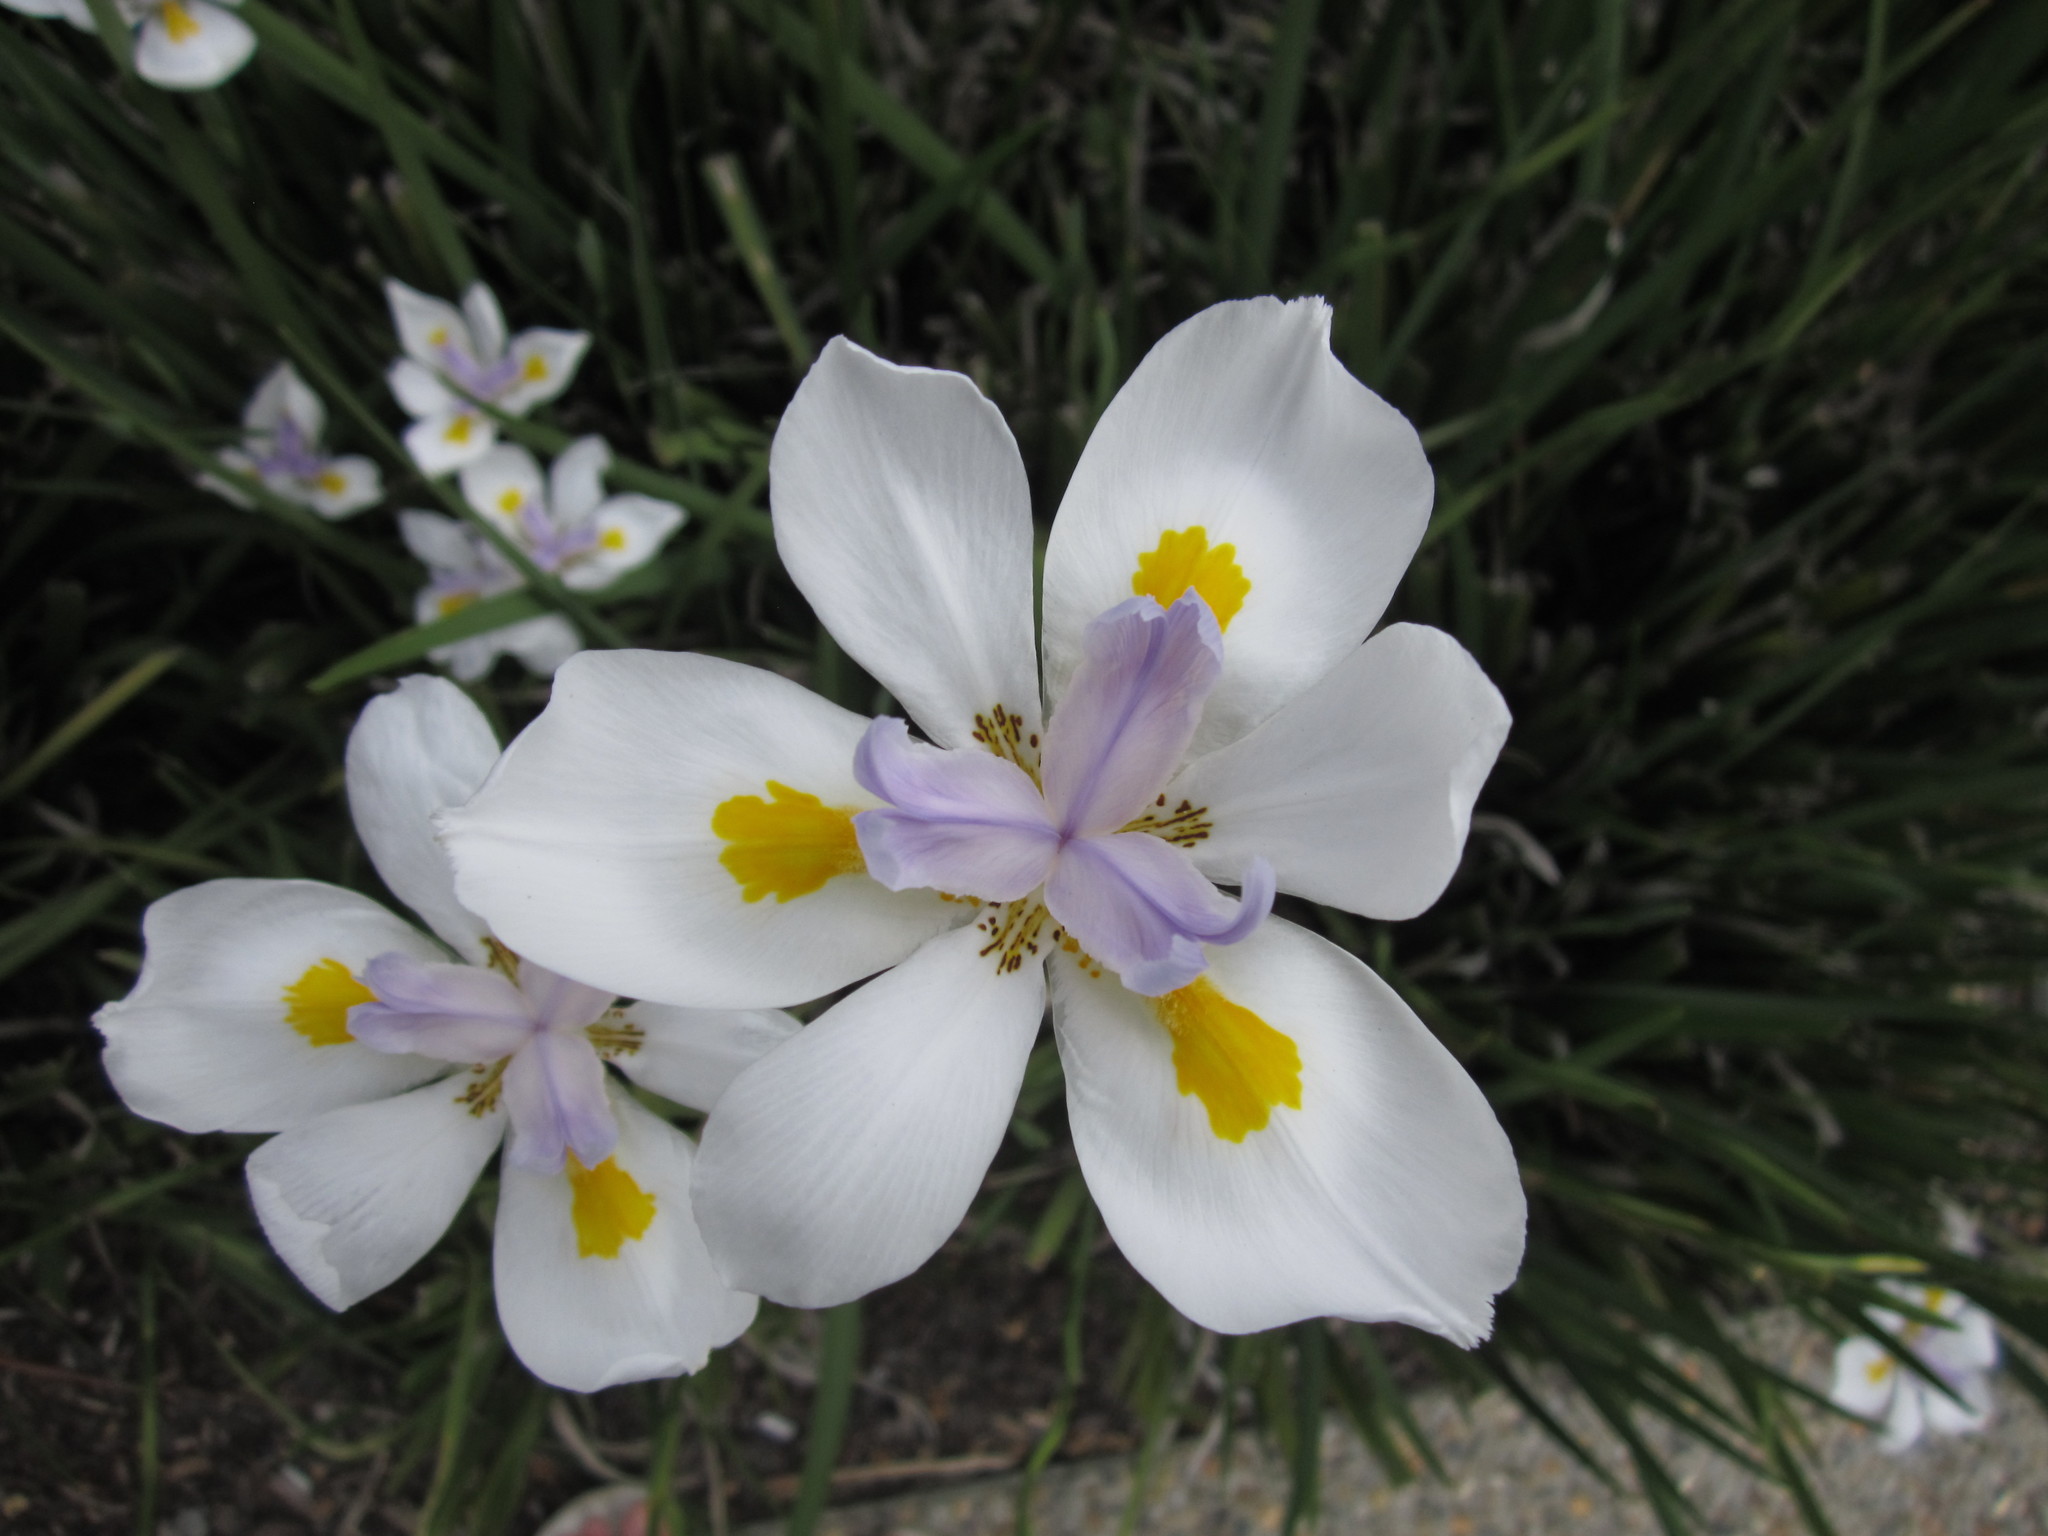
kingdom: Plantae
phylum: Tracheophyta
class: Liliopsida
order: Asparagales
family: Iridaceae
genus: Dietes
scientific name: Dietes grandiflora
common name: Wild iris
